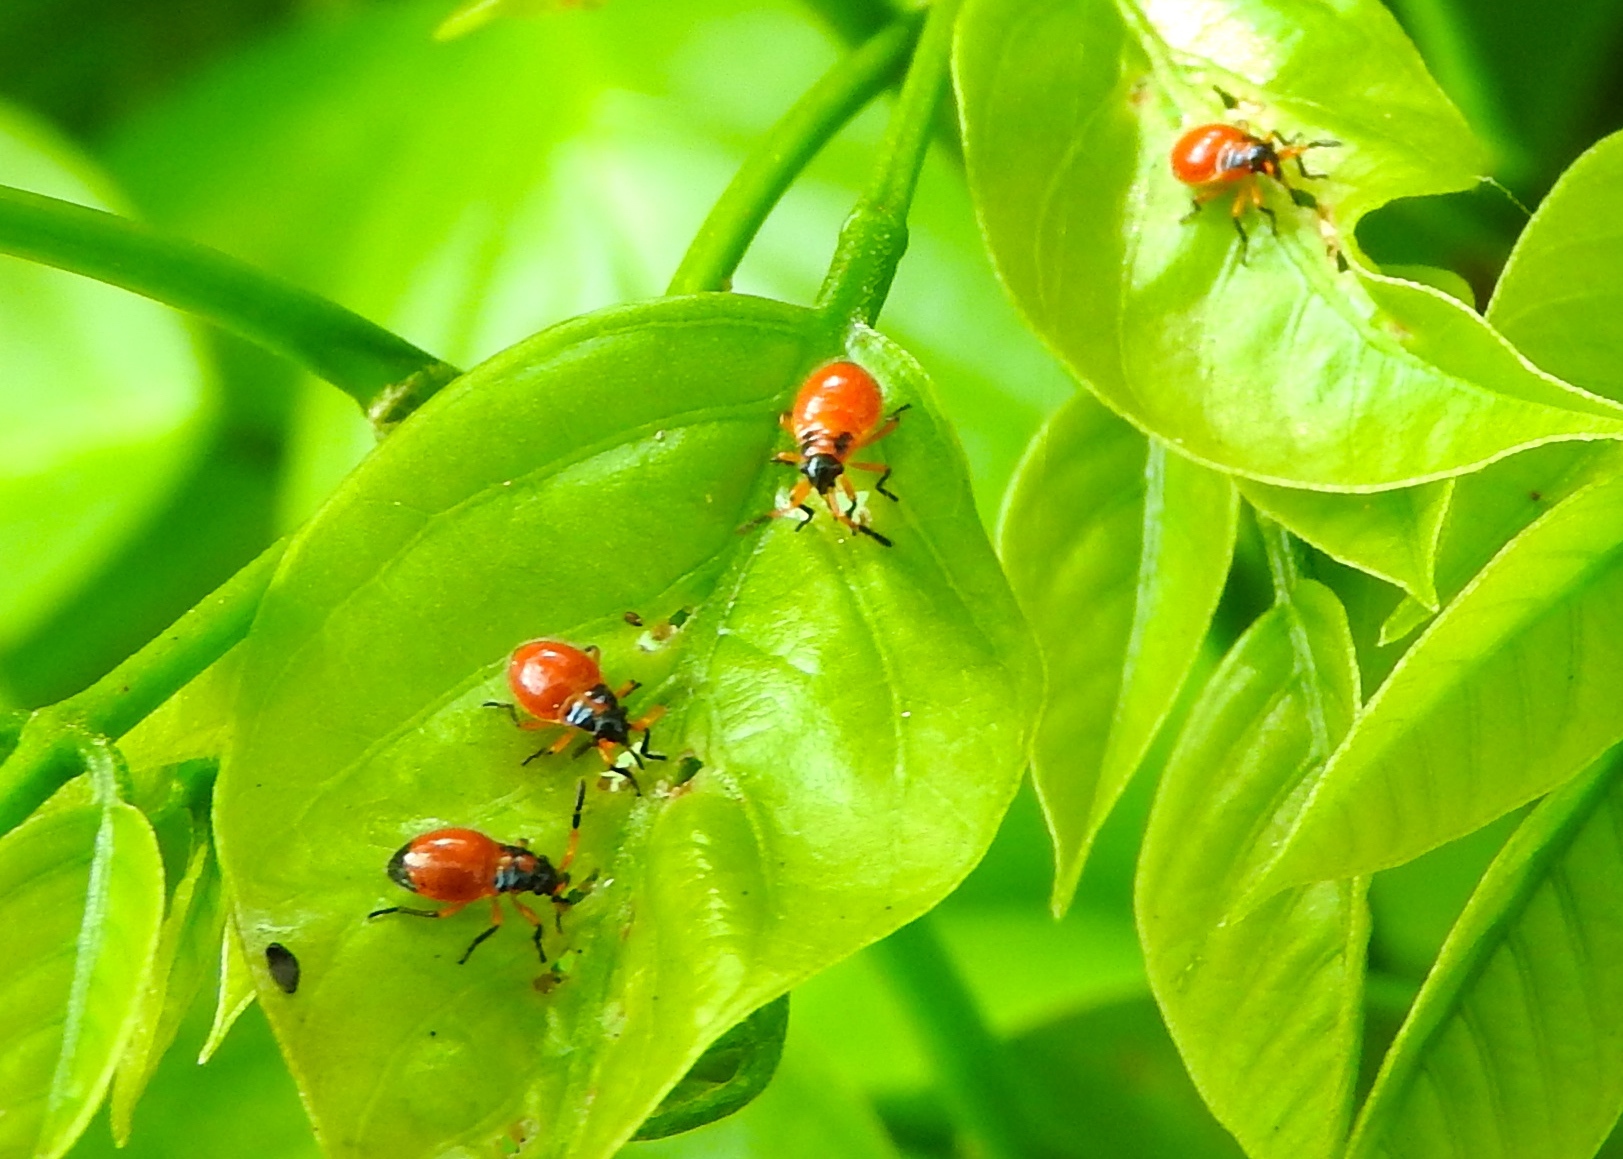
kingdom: Animalia
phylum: Arthropoda
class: Insecta
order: Hemiptera
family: Largidae
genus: Largus
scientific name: Largus
